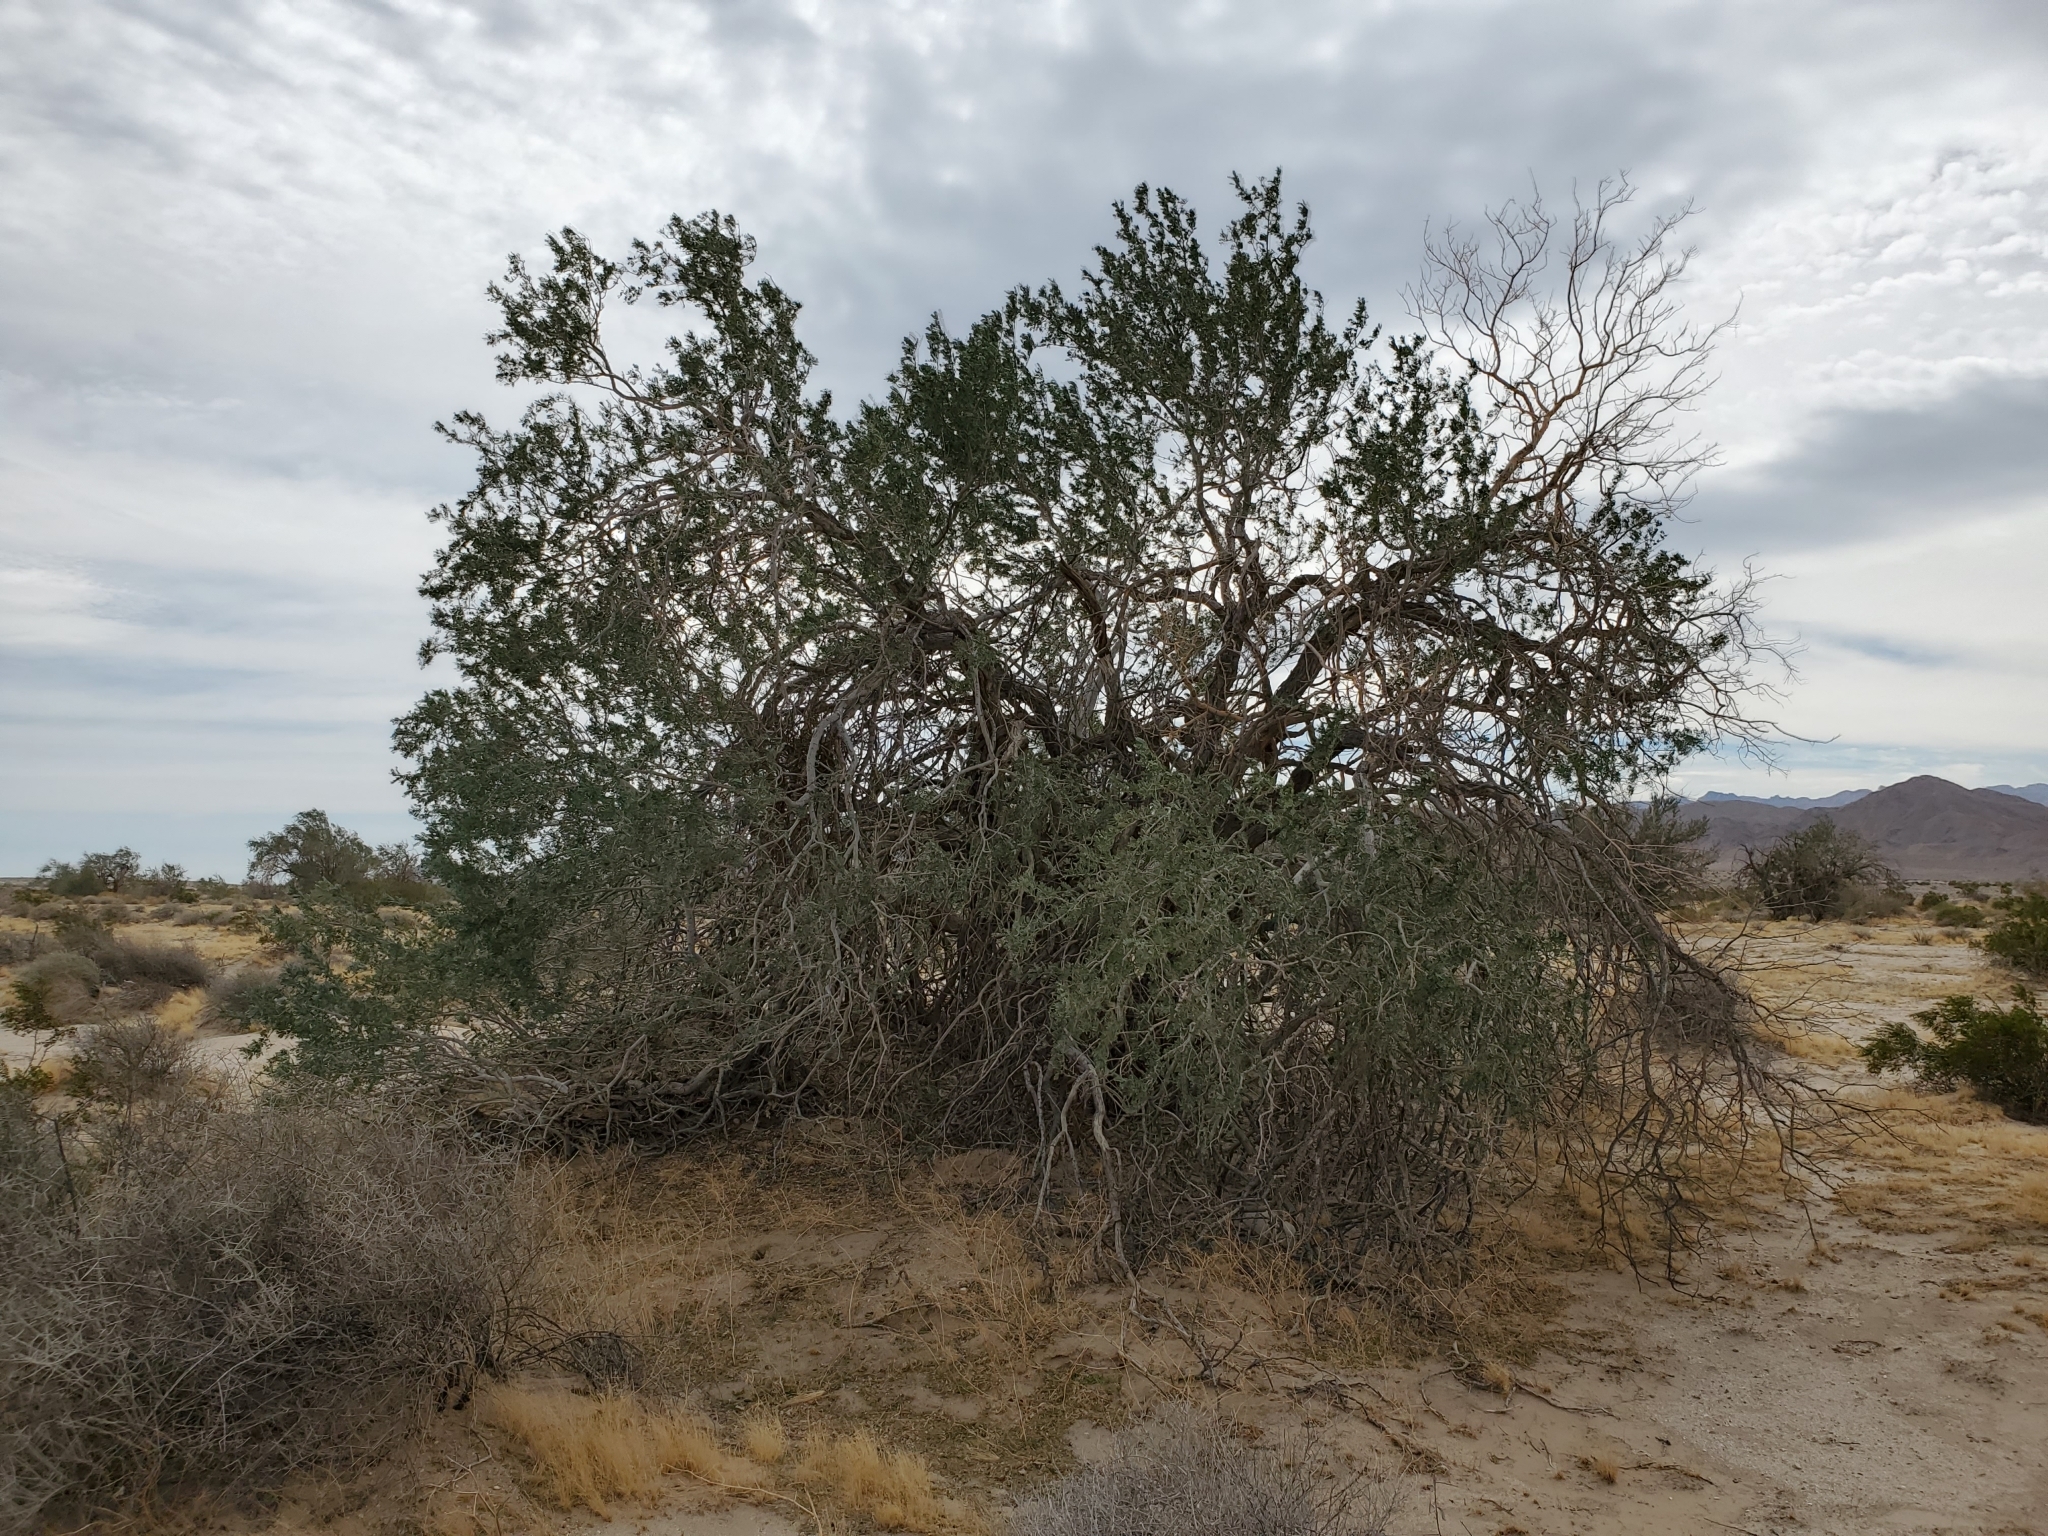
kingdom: Plantae
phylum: Tracheophyta
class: Magnoliopsida
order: Fabales
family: Fabaceae
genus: Olneya
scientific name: Olneya tesota
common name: Desert ironwood
